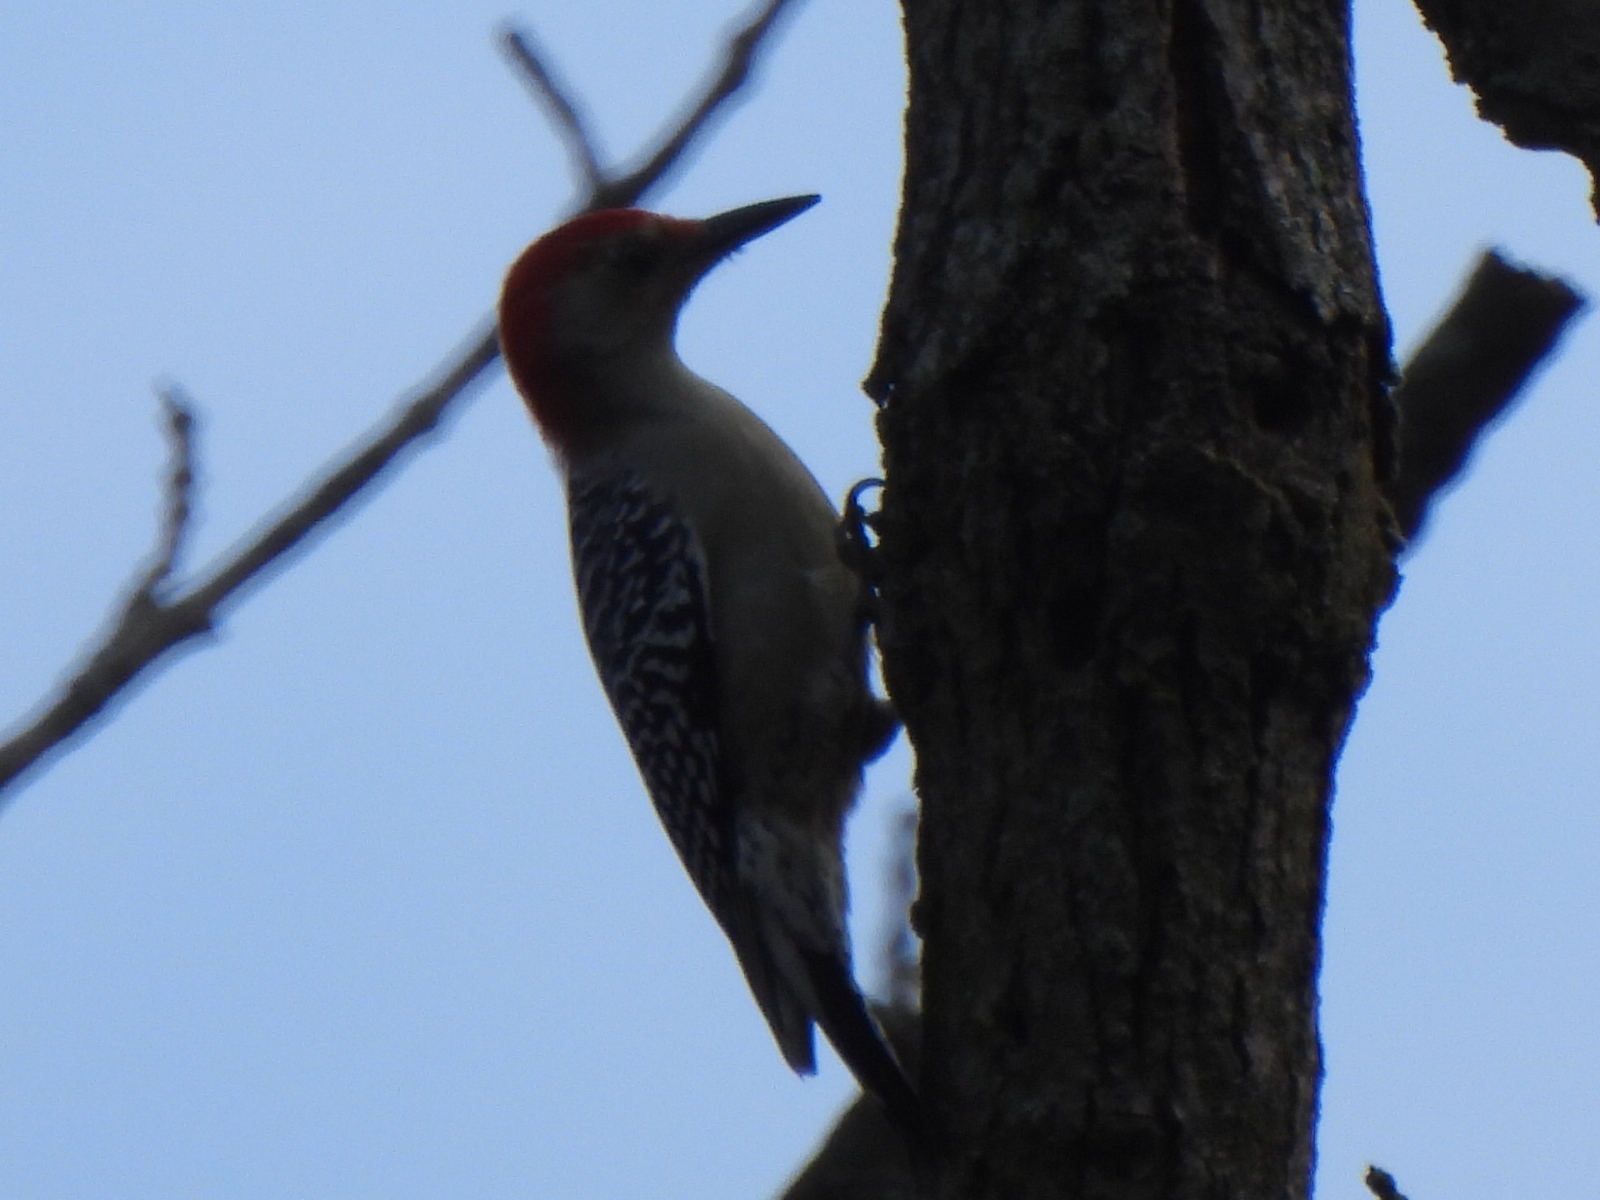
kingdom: Animalia
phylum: Chordata
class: Aves
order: Piciformes
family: Picidae
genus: Melanerpes
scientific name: Melanerpes carolinus
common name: Red-bellied woodpecker
